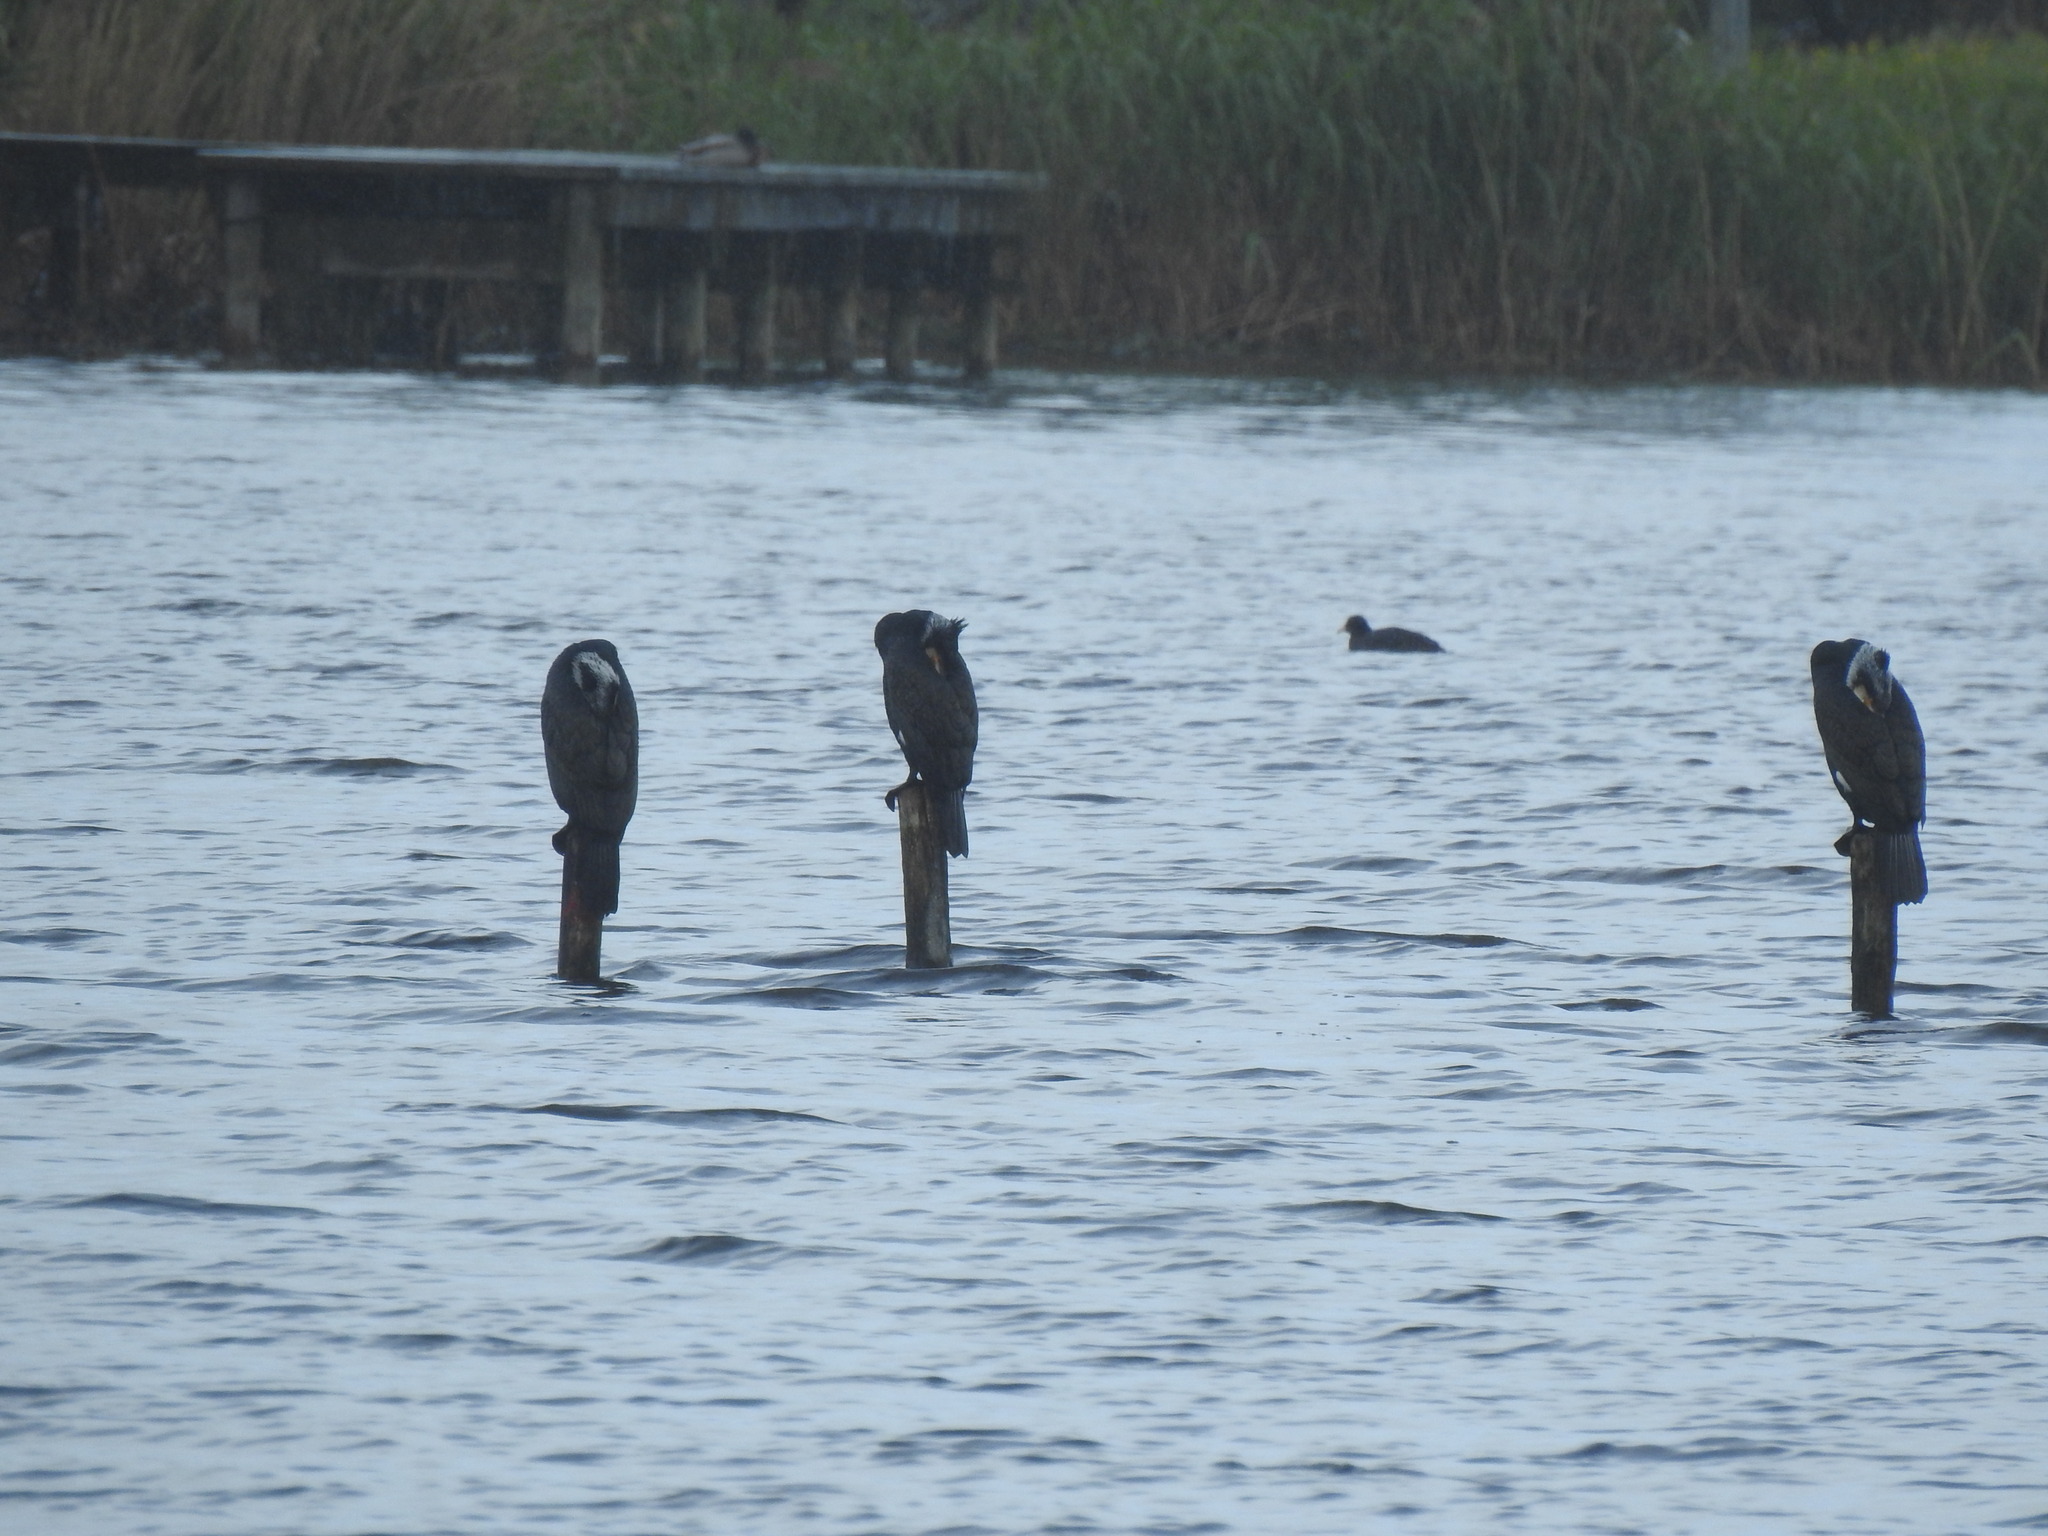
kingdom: Animalia
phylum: Chordata
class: Aves
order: Suliformes
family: Phalacrocoracidae
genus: Phalacrocorax
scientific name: Phalacrocorax carbo
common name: Great cormorant
